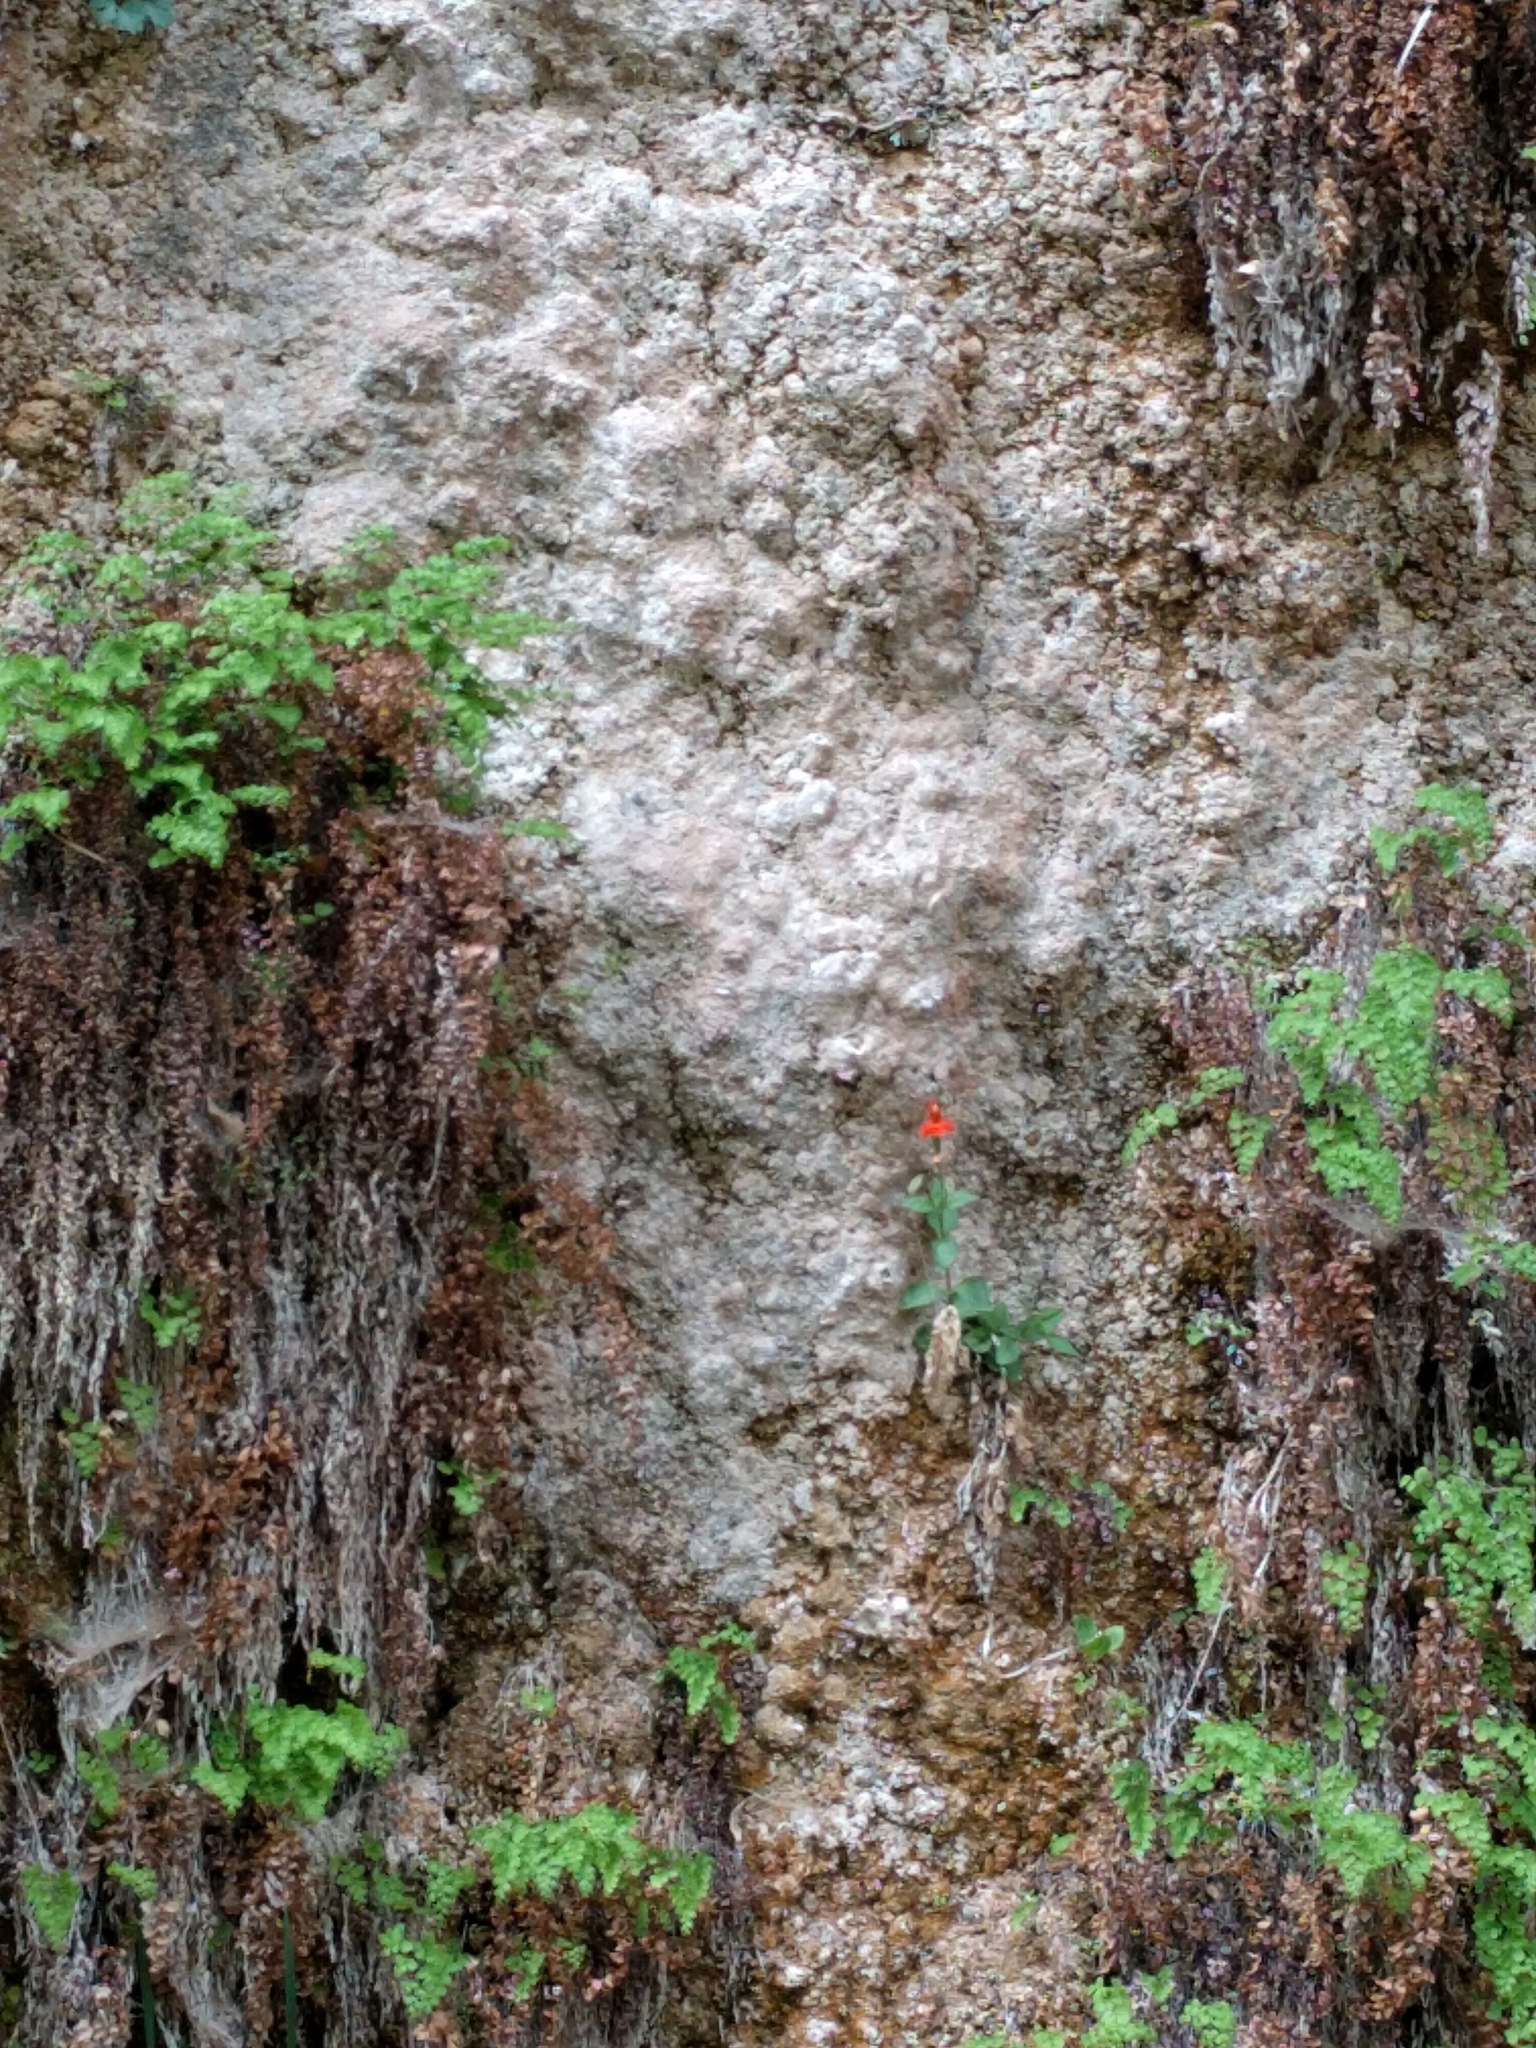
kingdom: Plantae
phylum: Tracheophyta
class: Magnoliopsida
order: Lamiales
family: Phrymaceae
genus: Erythranthe
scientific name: Erythranthe verbenacea
